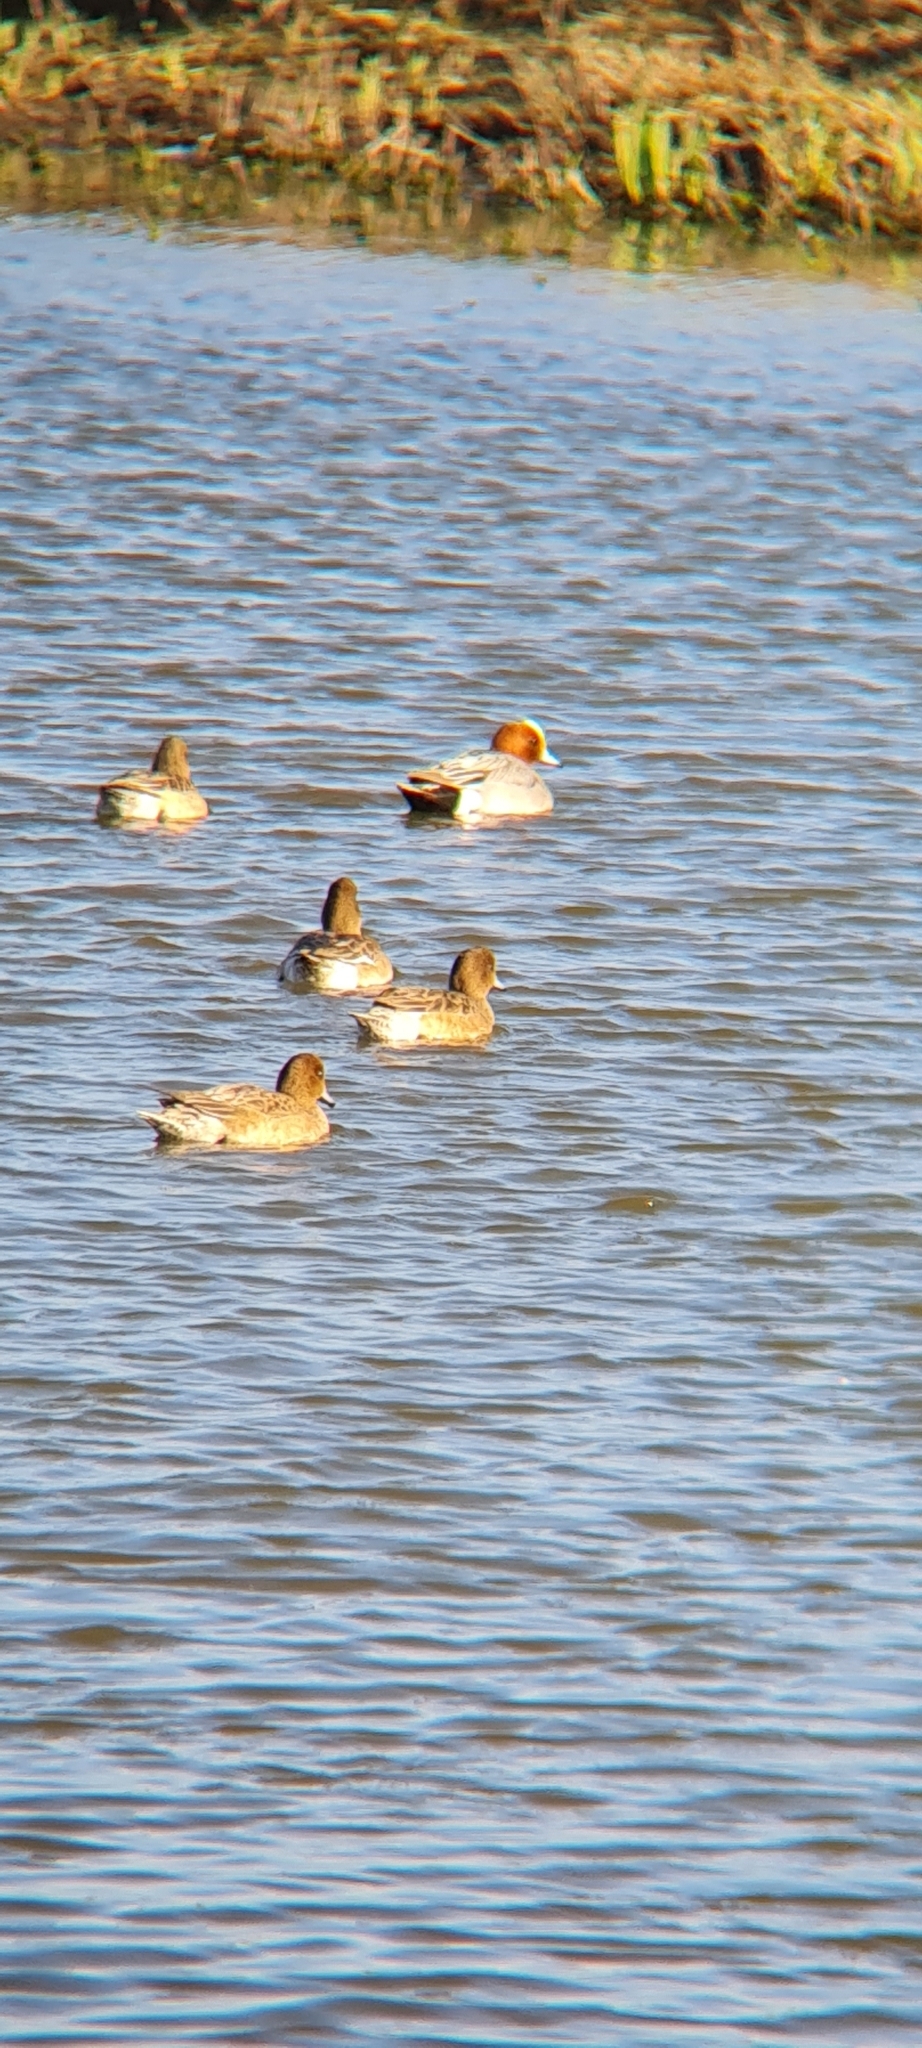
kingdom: Animalia
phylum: Chordata
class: Aves
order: Anseriformes
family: Anatidae
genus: Mareca
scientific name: Mareca penelope
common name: Eurasian wigeon
